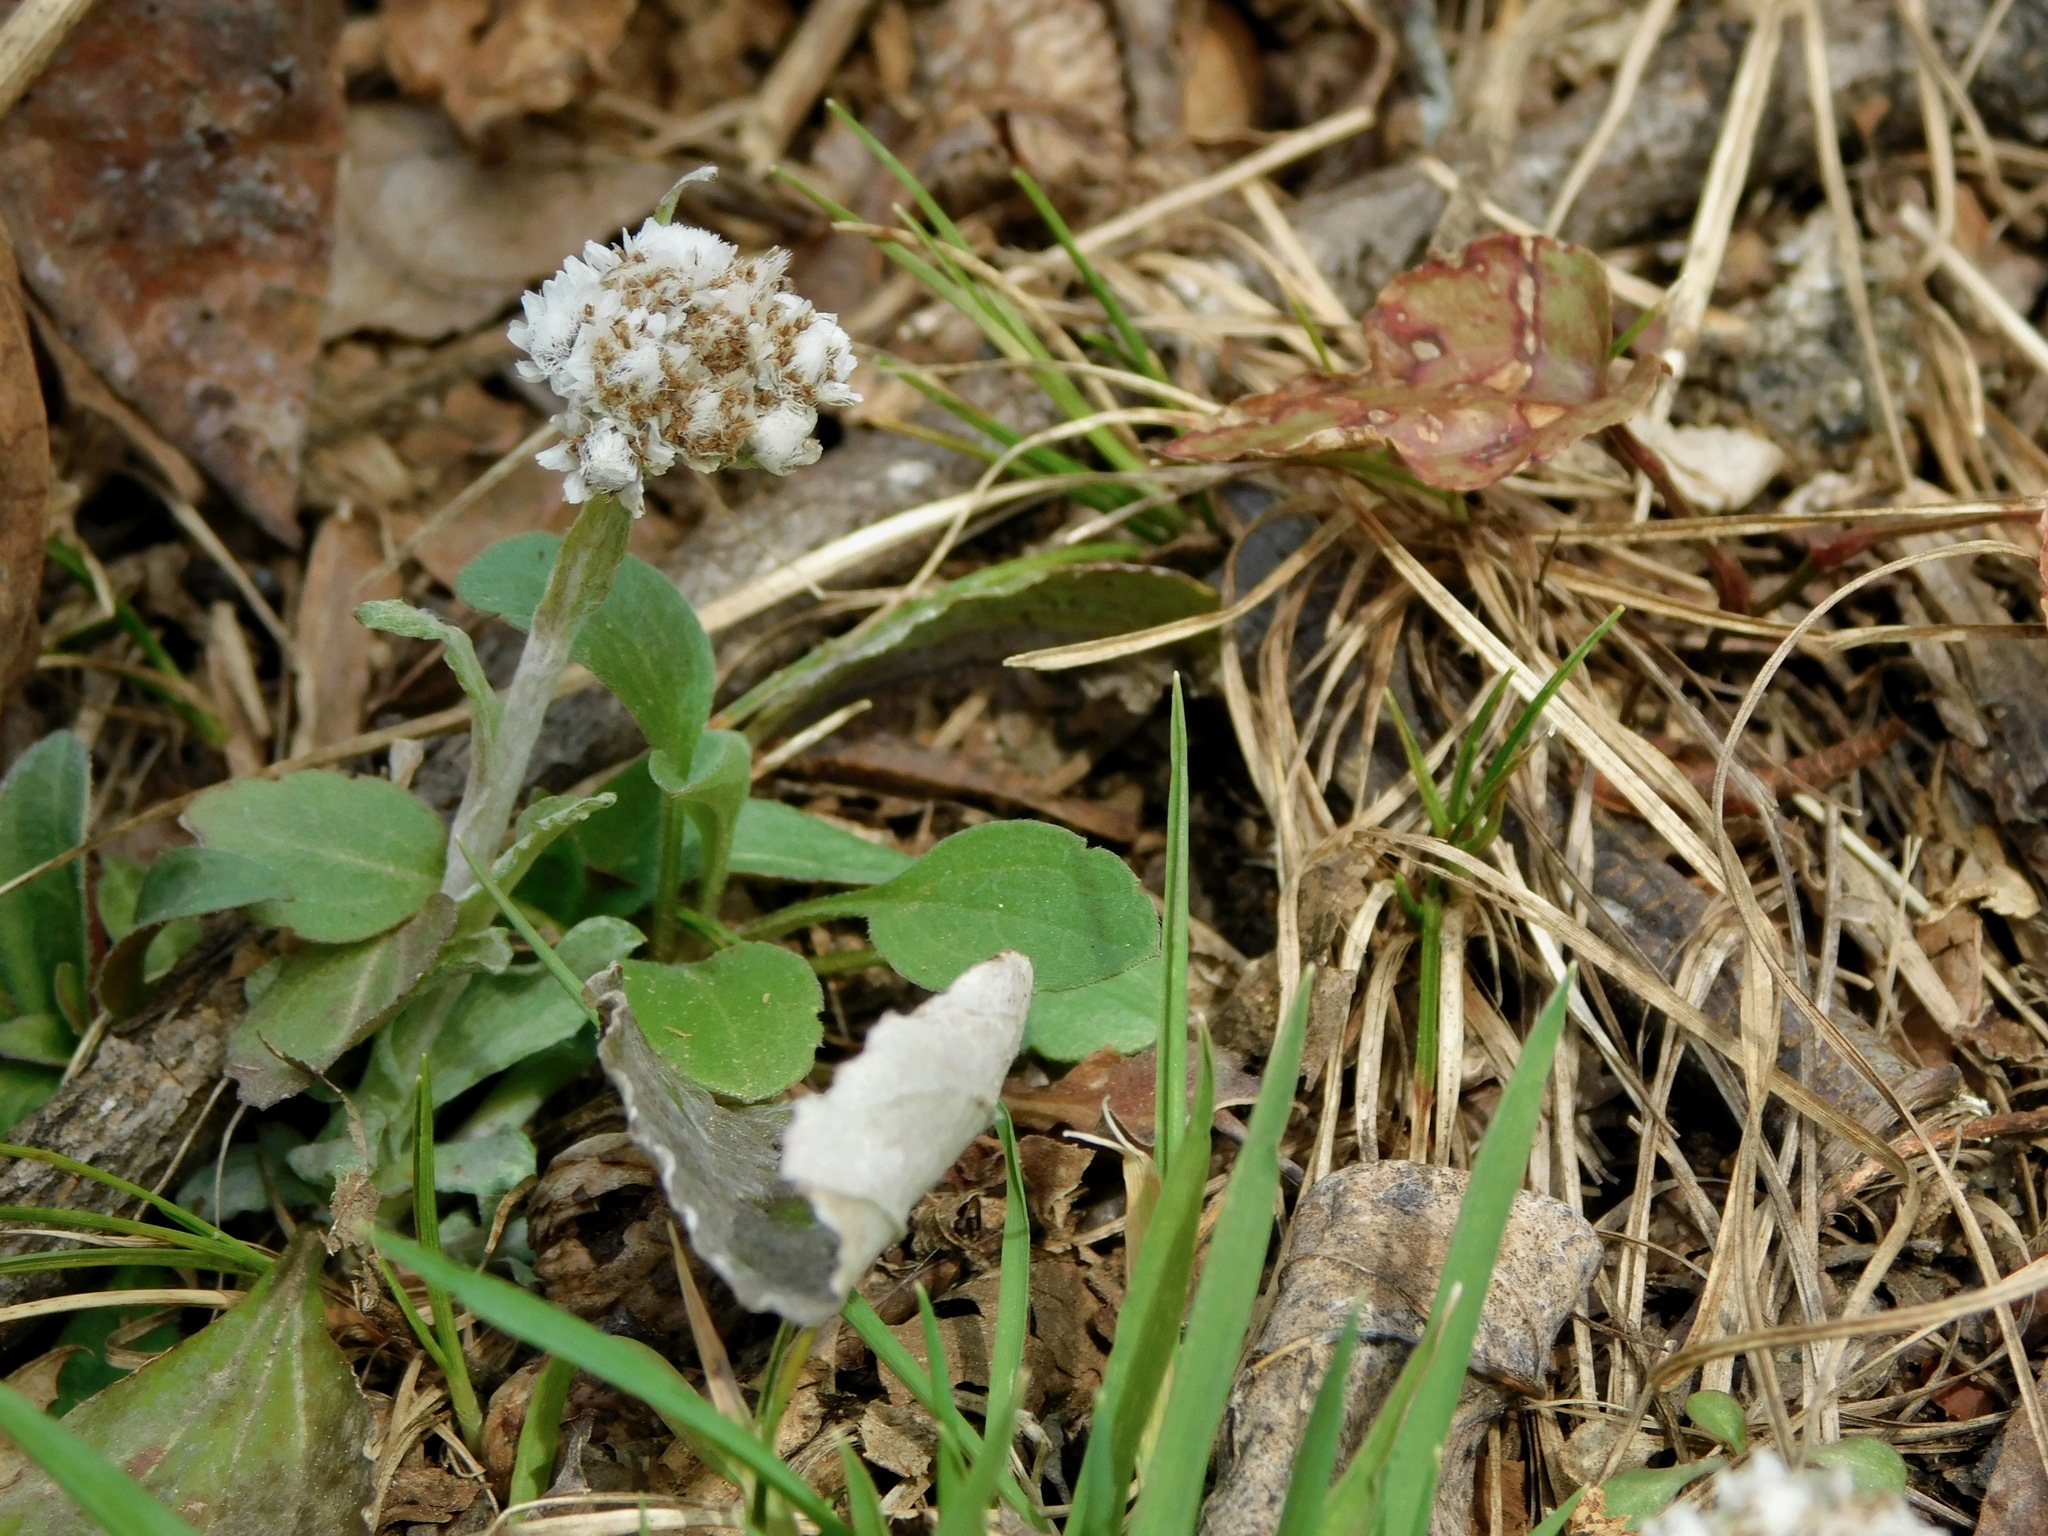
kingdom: Plantae
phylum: Tracheophyta
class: Magnoliopsida
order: Asterales
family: Asteraceae
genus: Antennaria
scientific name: Antennaria plantaginifolia
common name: Plantain-leaved pussytoes
